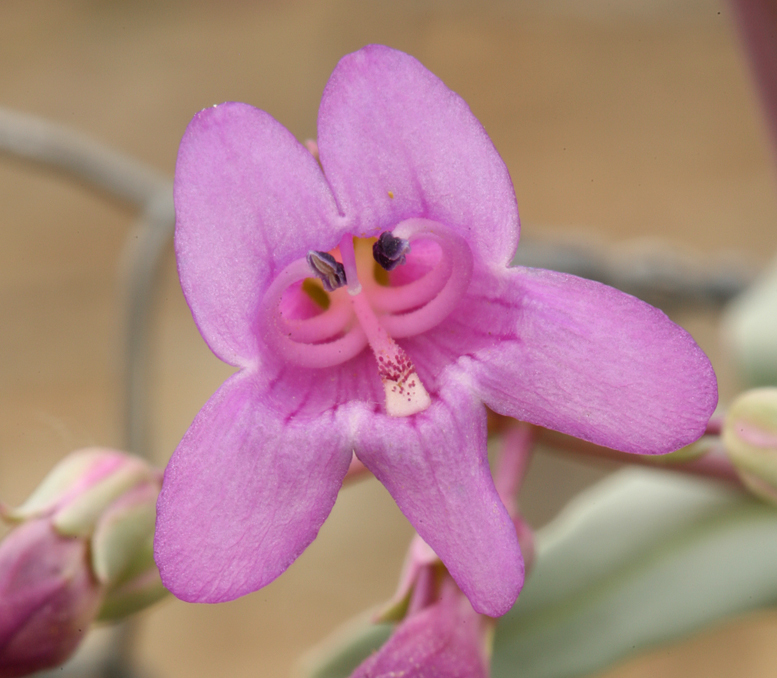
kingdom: Plantae
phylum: Tracheophyta
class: Magnoliopsida
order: Lamiales
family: Plantaginaceae
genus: Penstemon
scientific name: Penstemon patens
